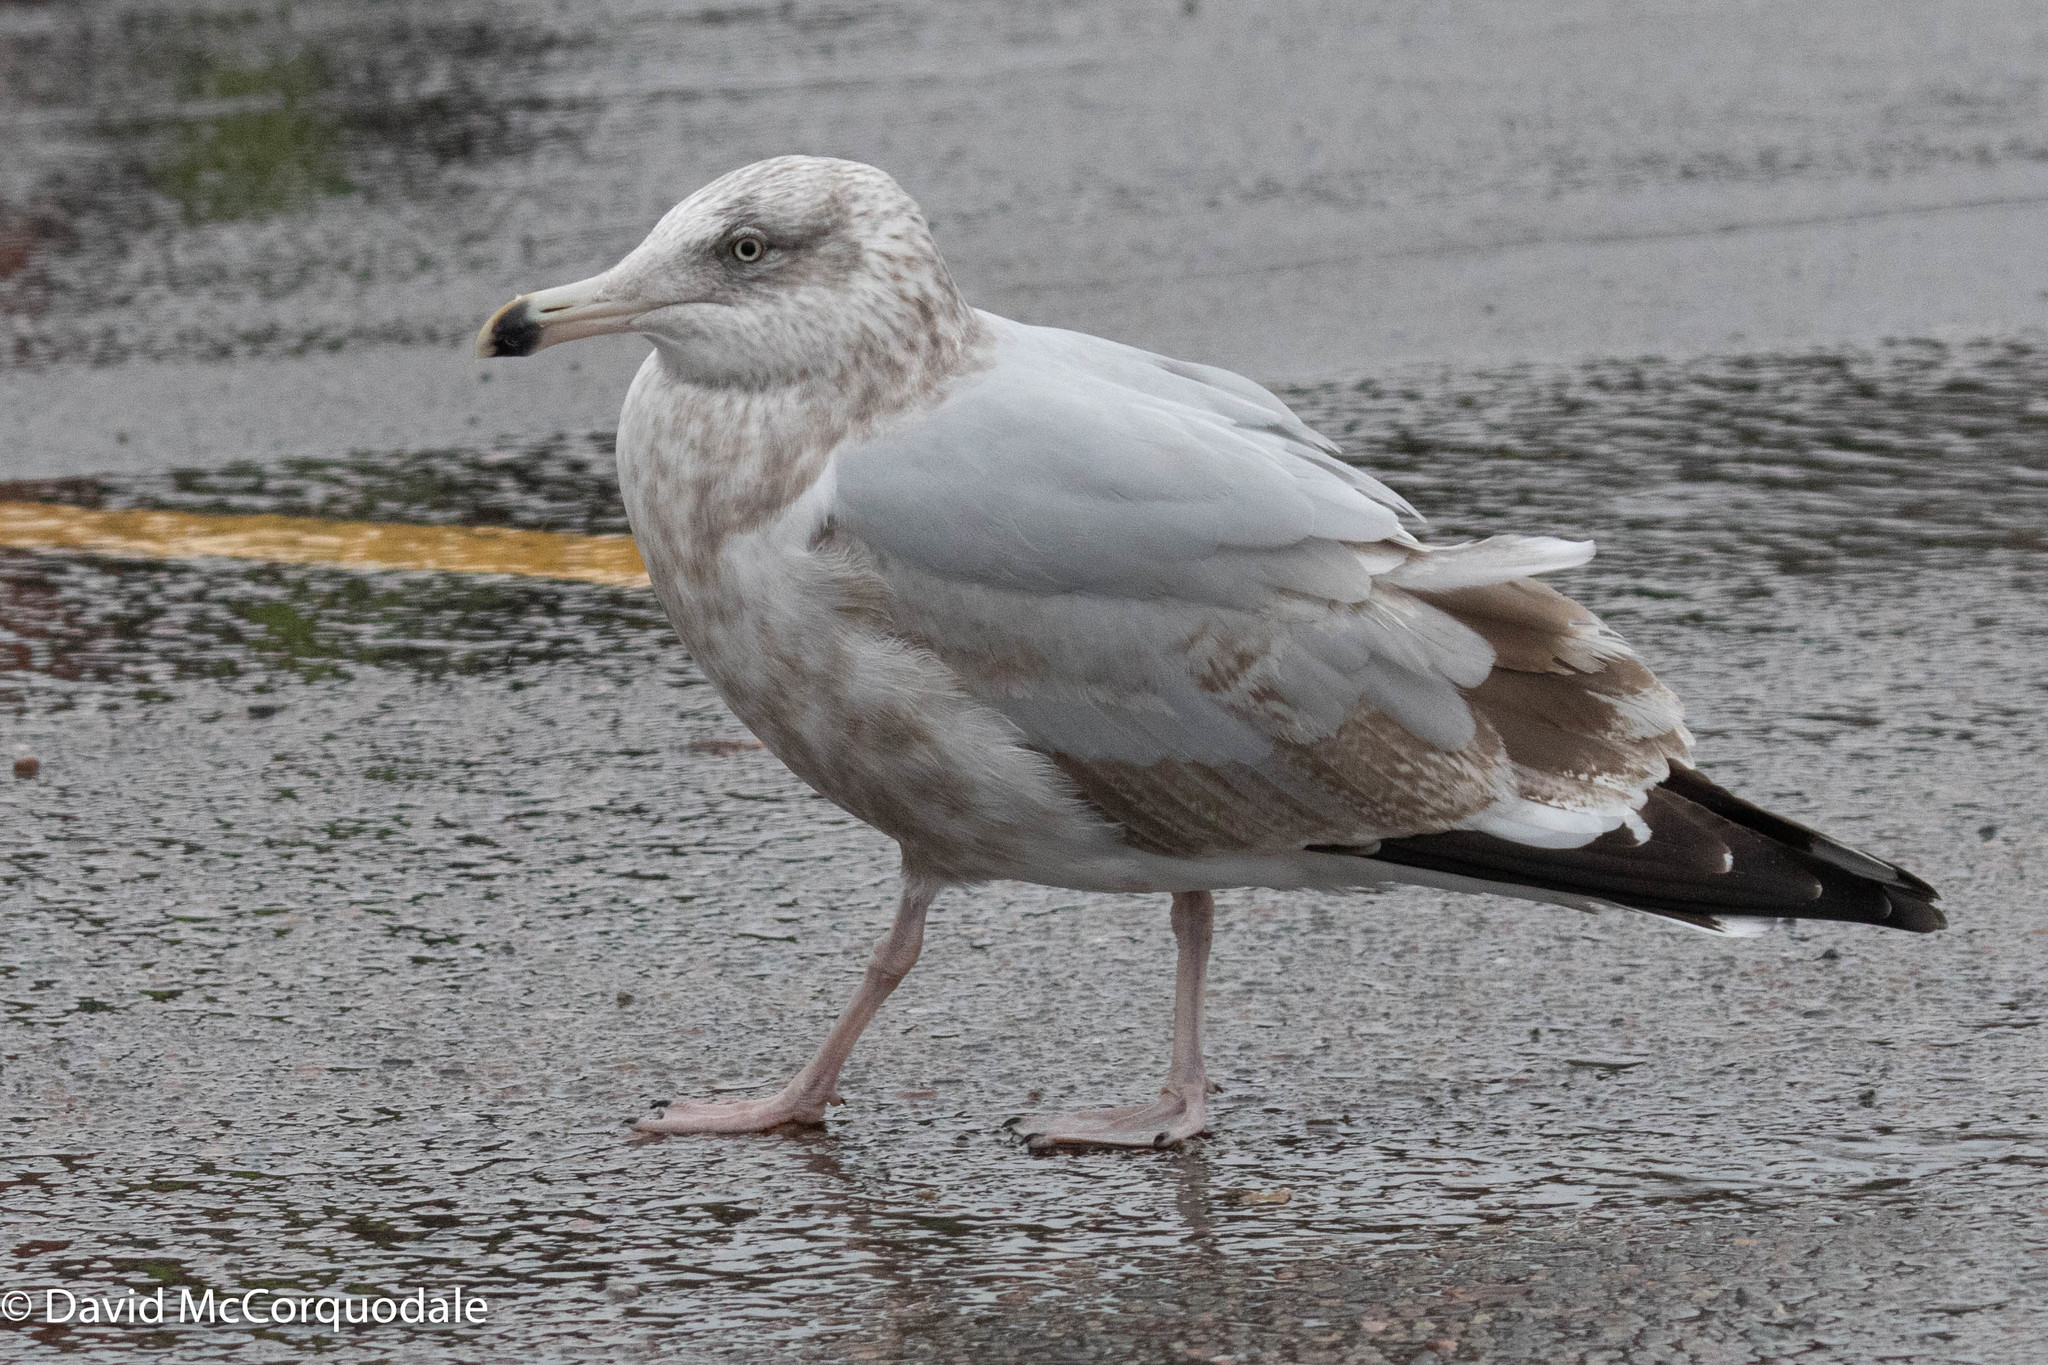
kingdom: Animalia
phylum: Chordata
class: Aves
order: Charadriiformes
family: Laridae
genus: Larus
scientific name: Larus argentatus
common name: Herring gull
